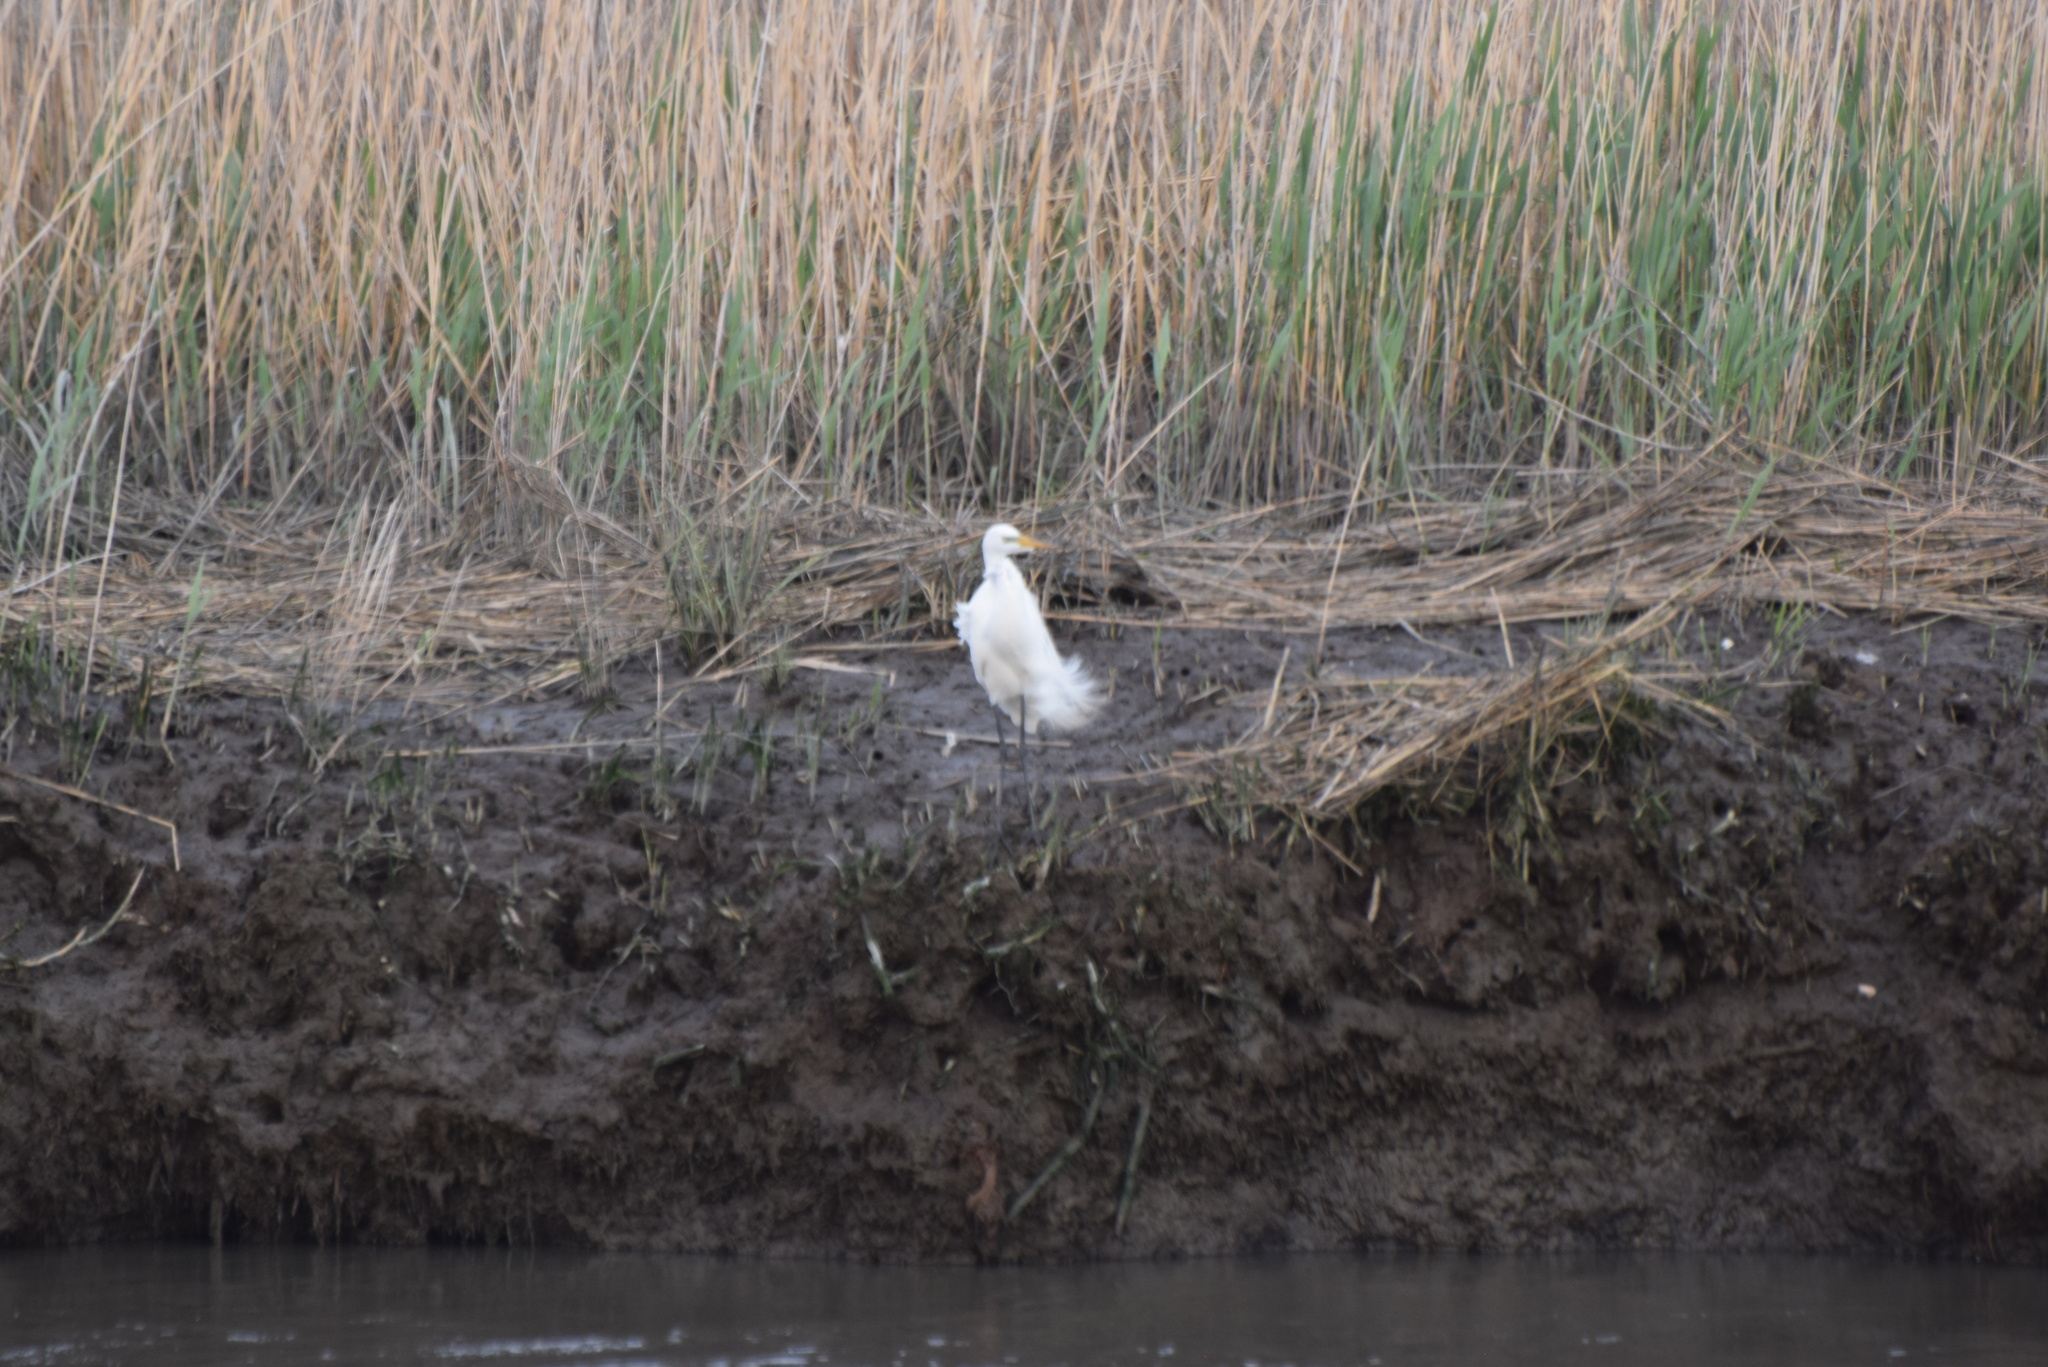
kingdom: Animalia
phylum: Chordata
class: Aves
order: Pelecaniformes
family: Ardeidae
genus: Ardea
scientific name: Ardea alba
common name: Great egret
